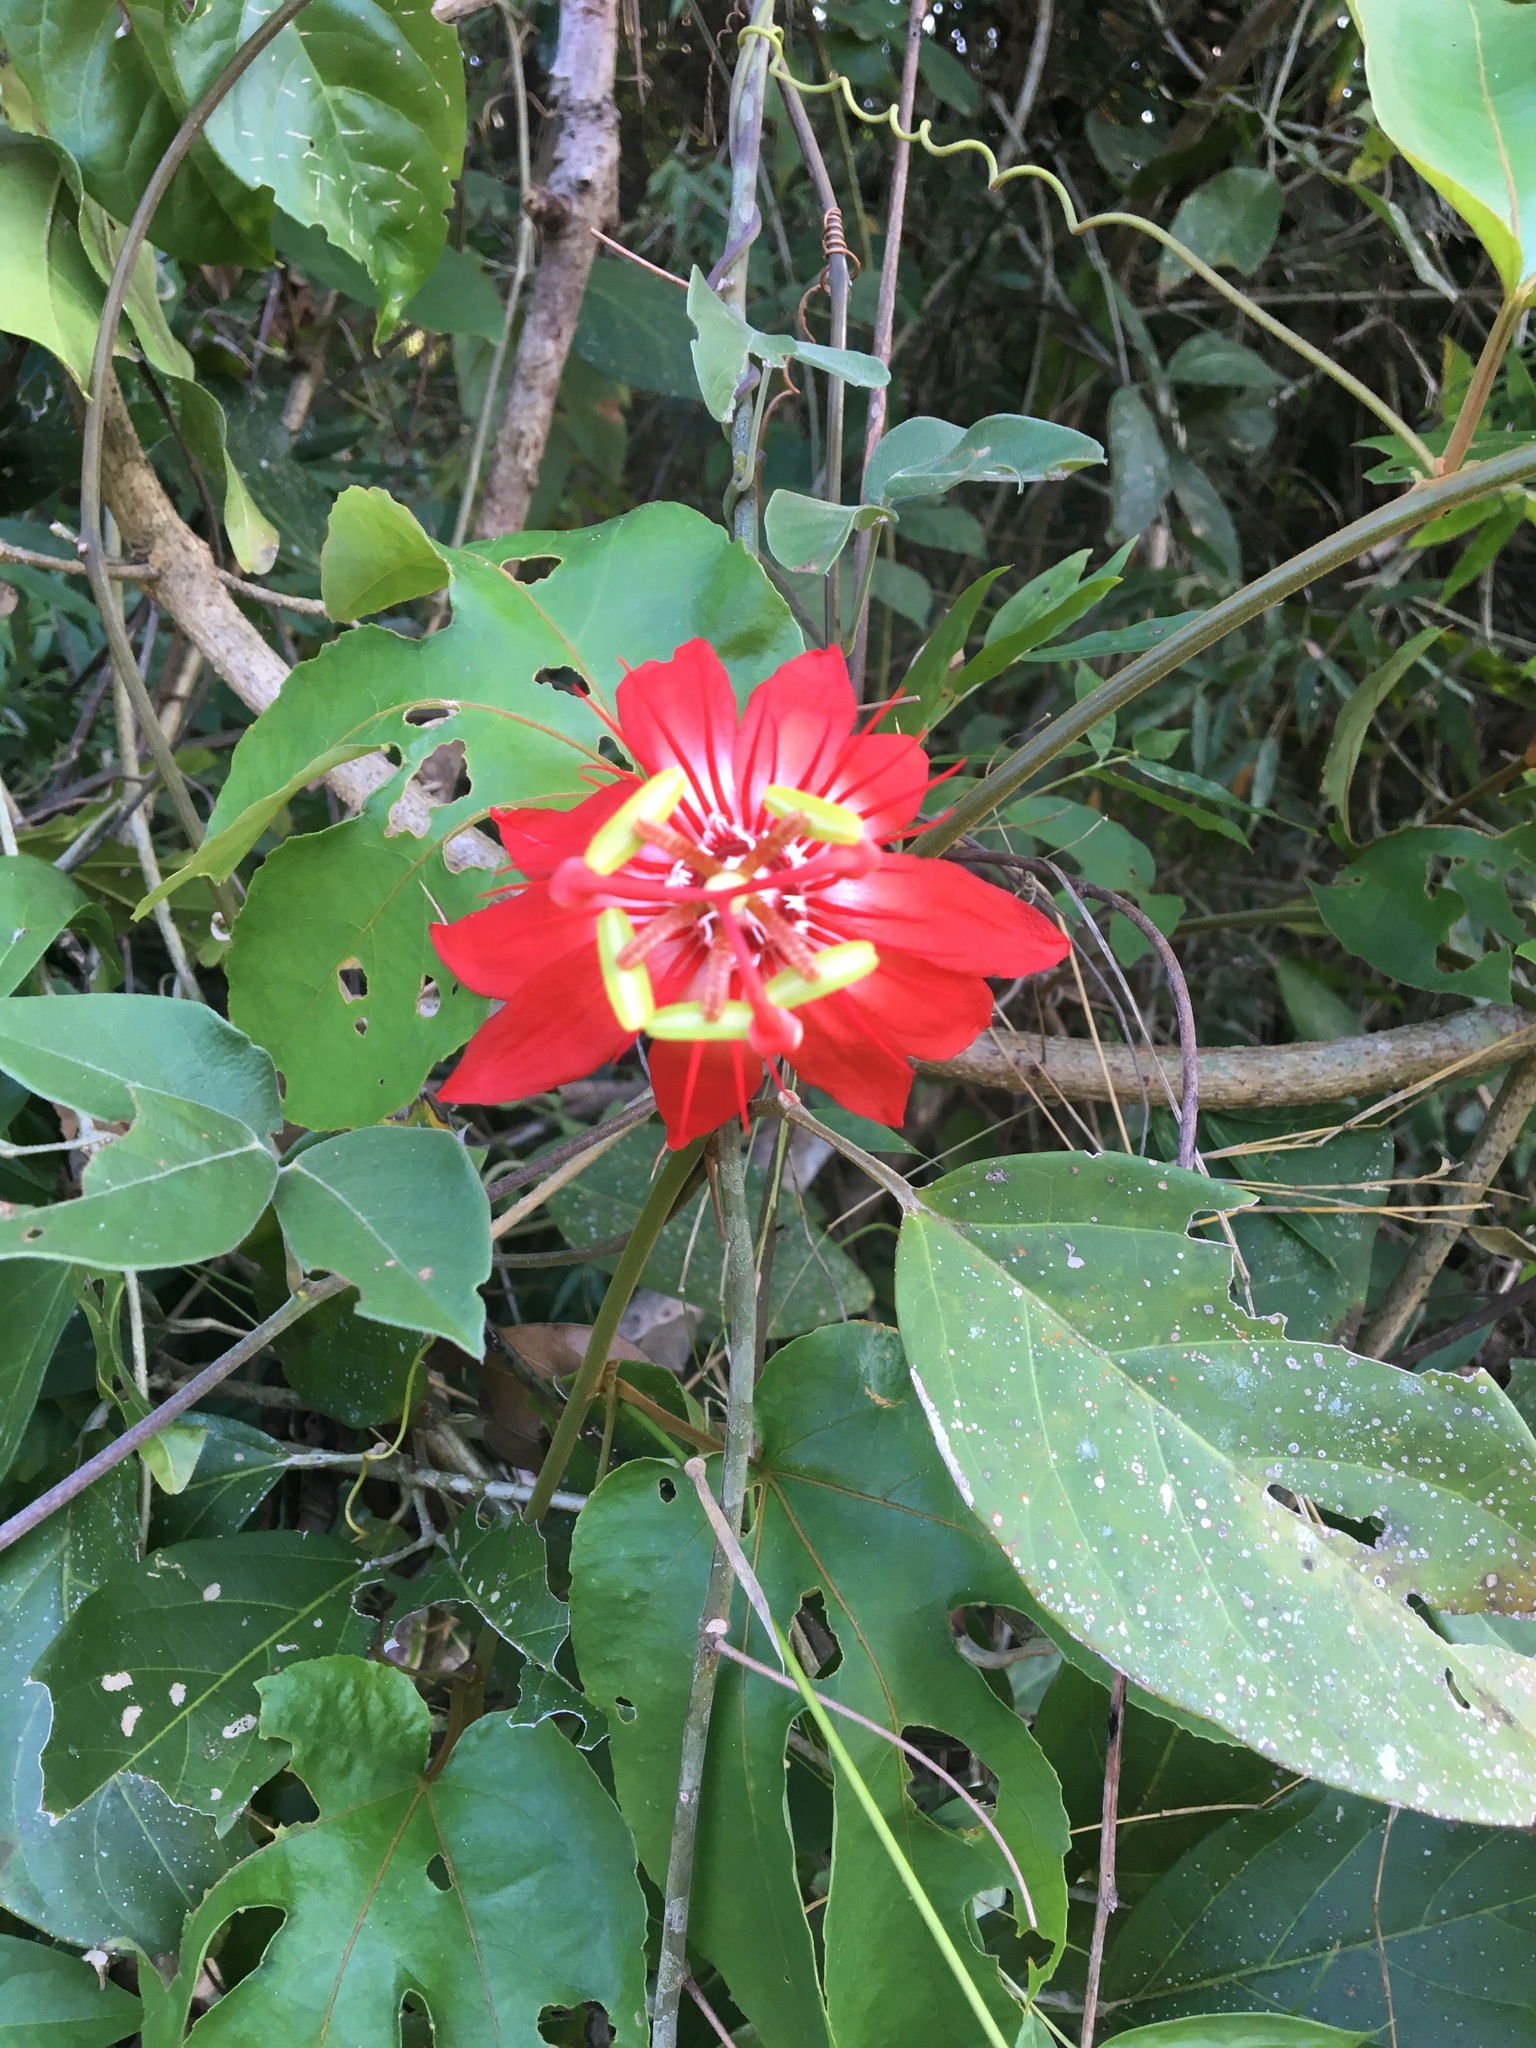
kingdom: Plantae
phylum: Tracheophyta
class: Magnoliopsida
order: Malpighiales
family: Passifloraceae
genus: Passiflora
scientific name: Passiflora vitifolia
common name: Perfumed passionflower
